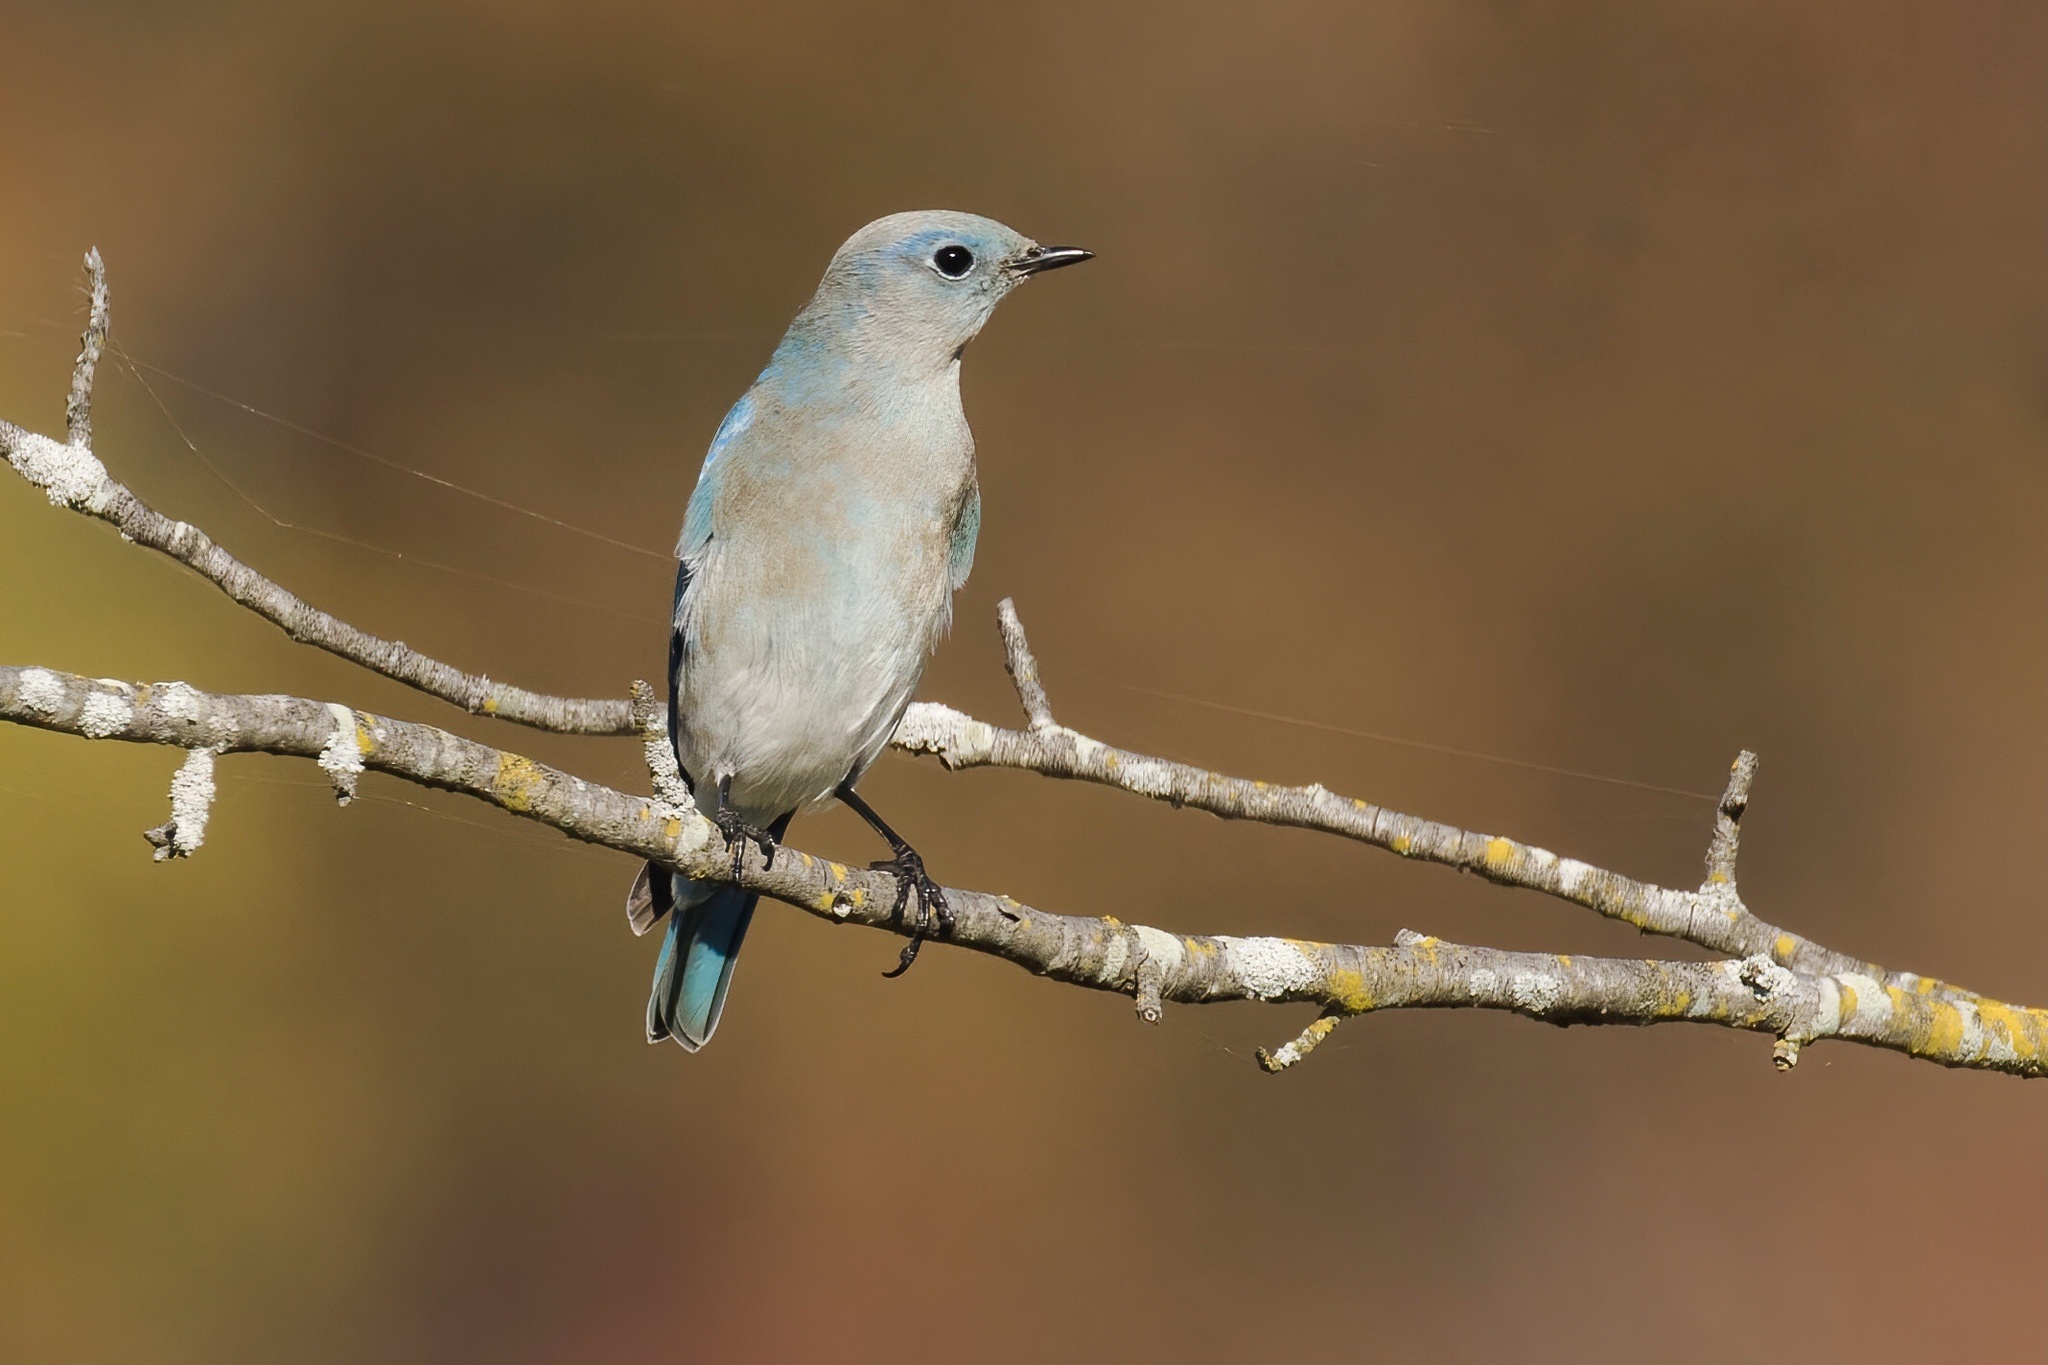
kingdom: Animalia
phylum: Chordata
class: Aves
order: Passeriformes
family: Turdidae
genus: Sialia
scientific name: Sialia currucoides
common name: Mountain bluebird
